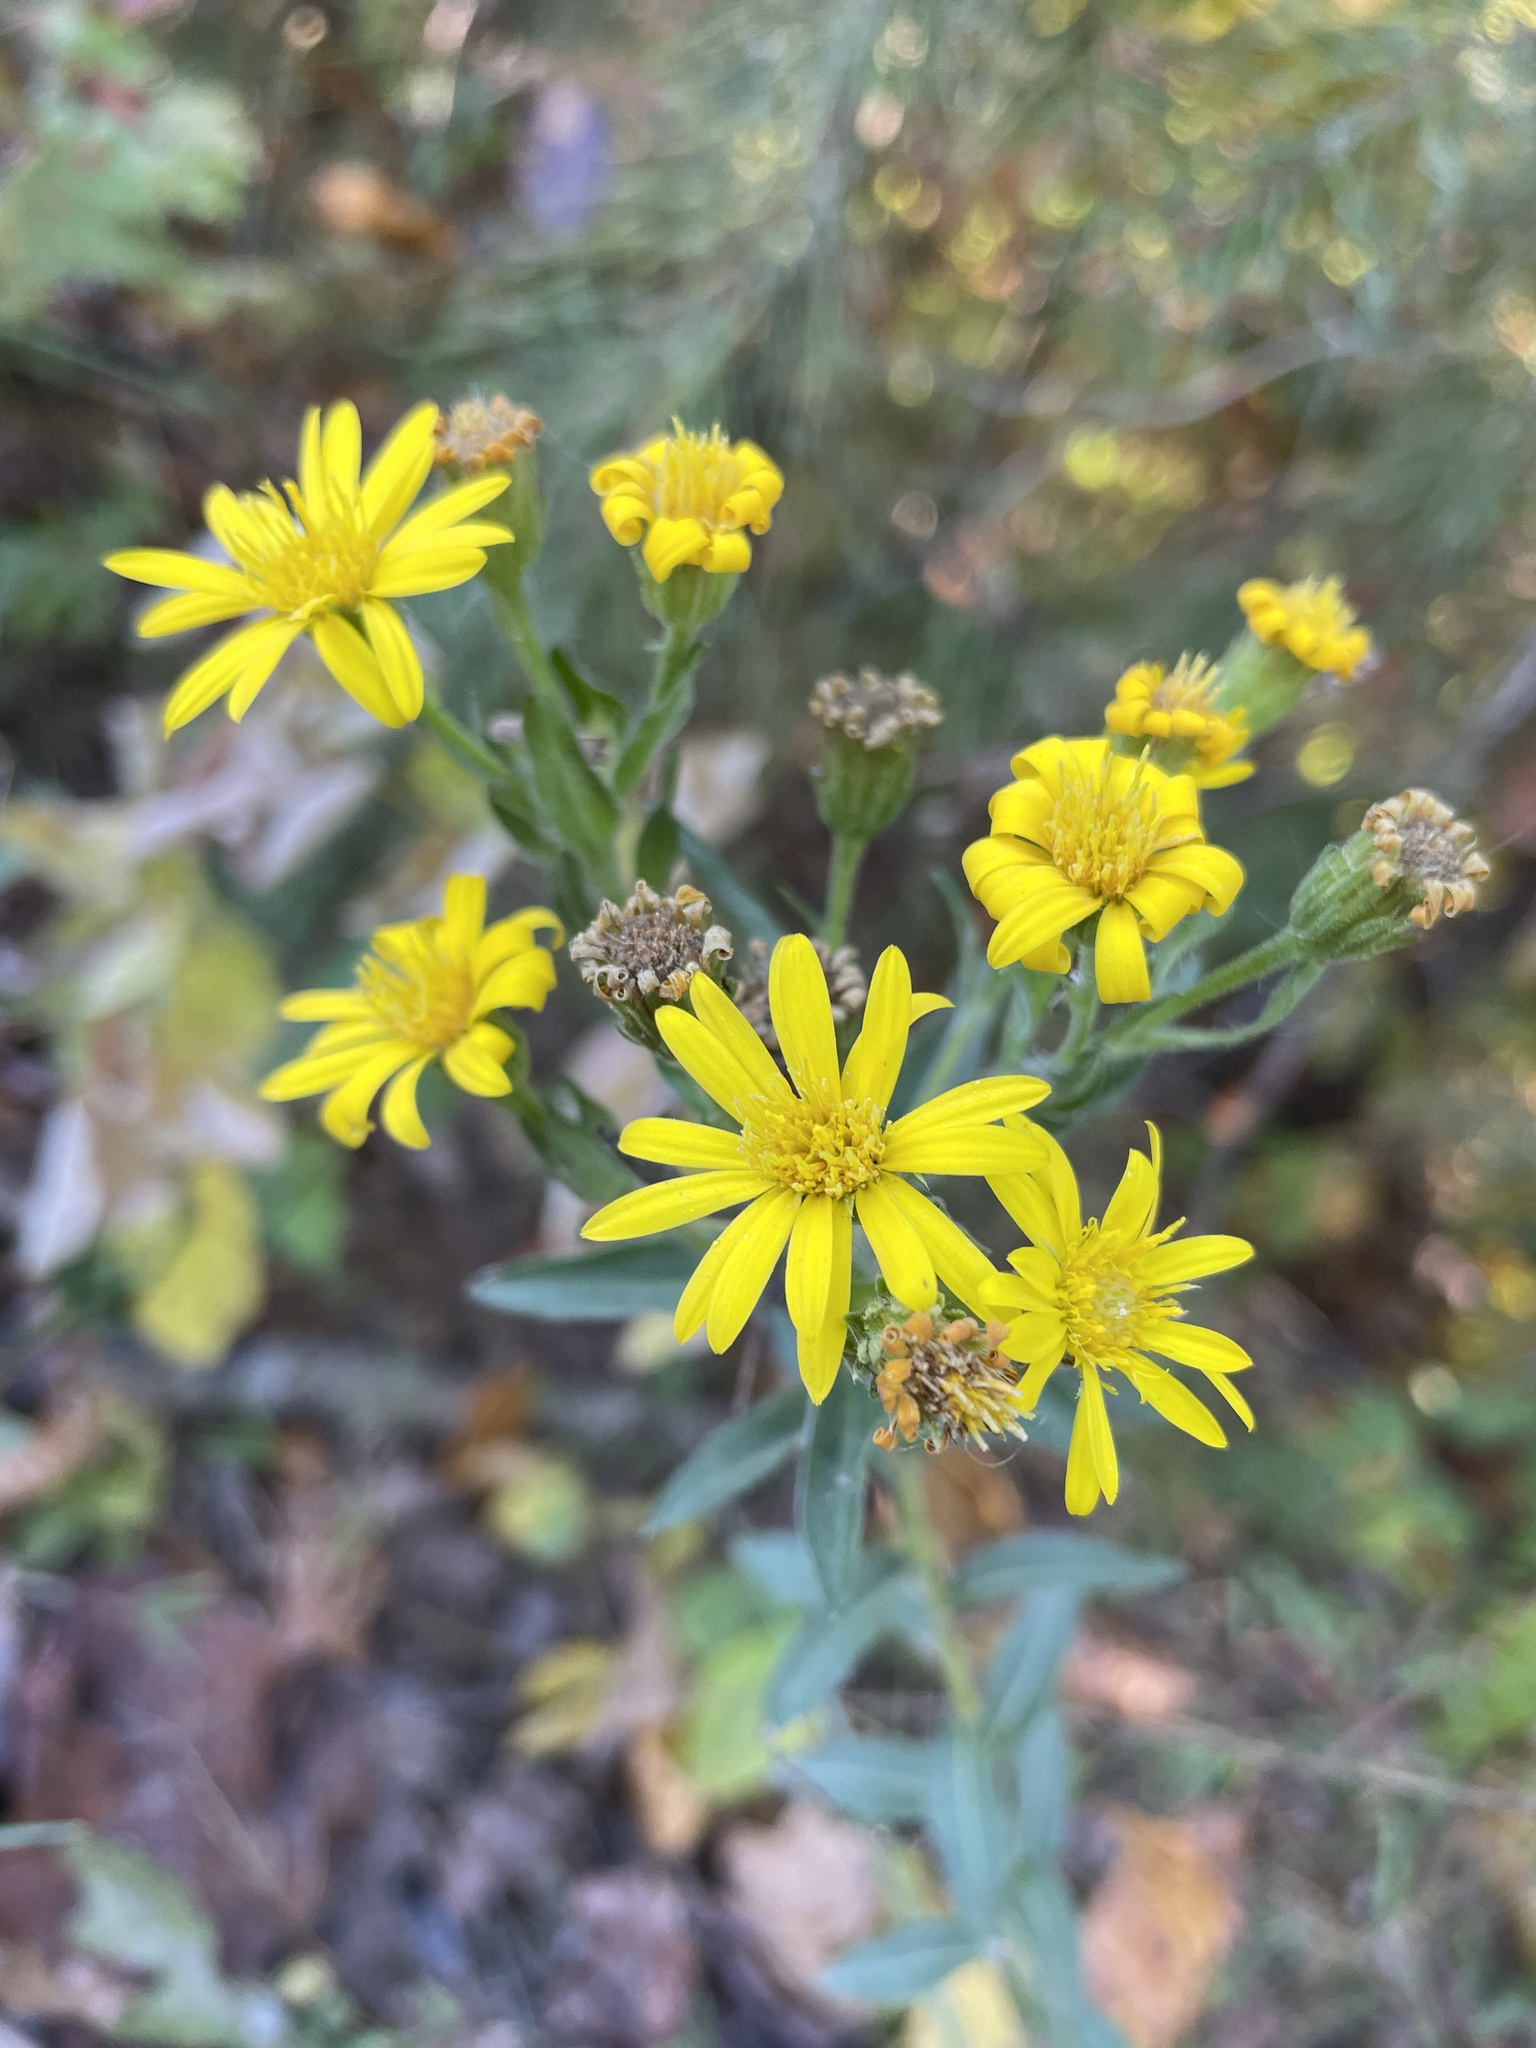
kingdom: Plantae
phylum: Tracheophyta
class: Magnoliopsida
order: Asterales
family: Asteraceae
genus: Chrysopsis
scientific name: Chrysopsis mariana
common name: Maryland golden-aster
